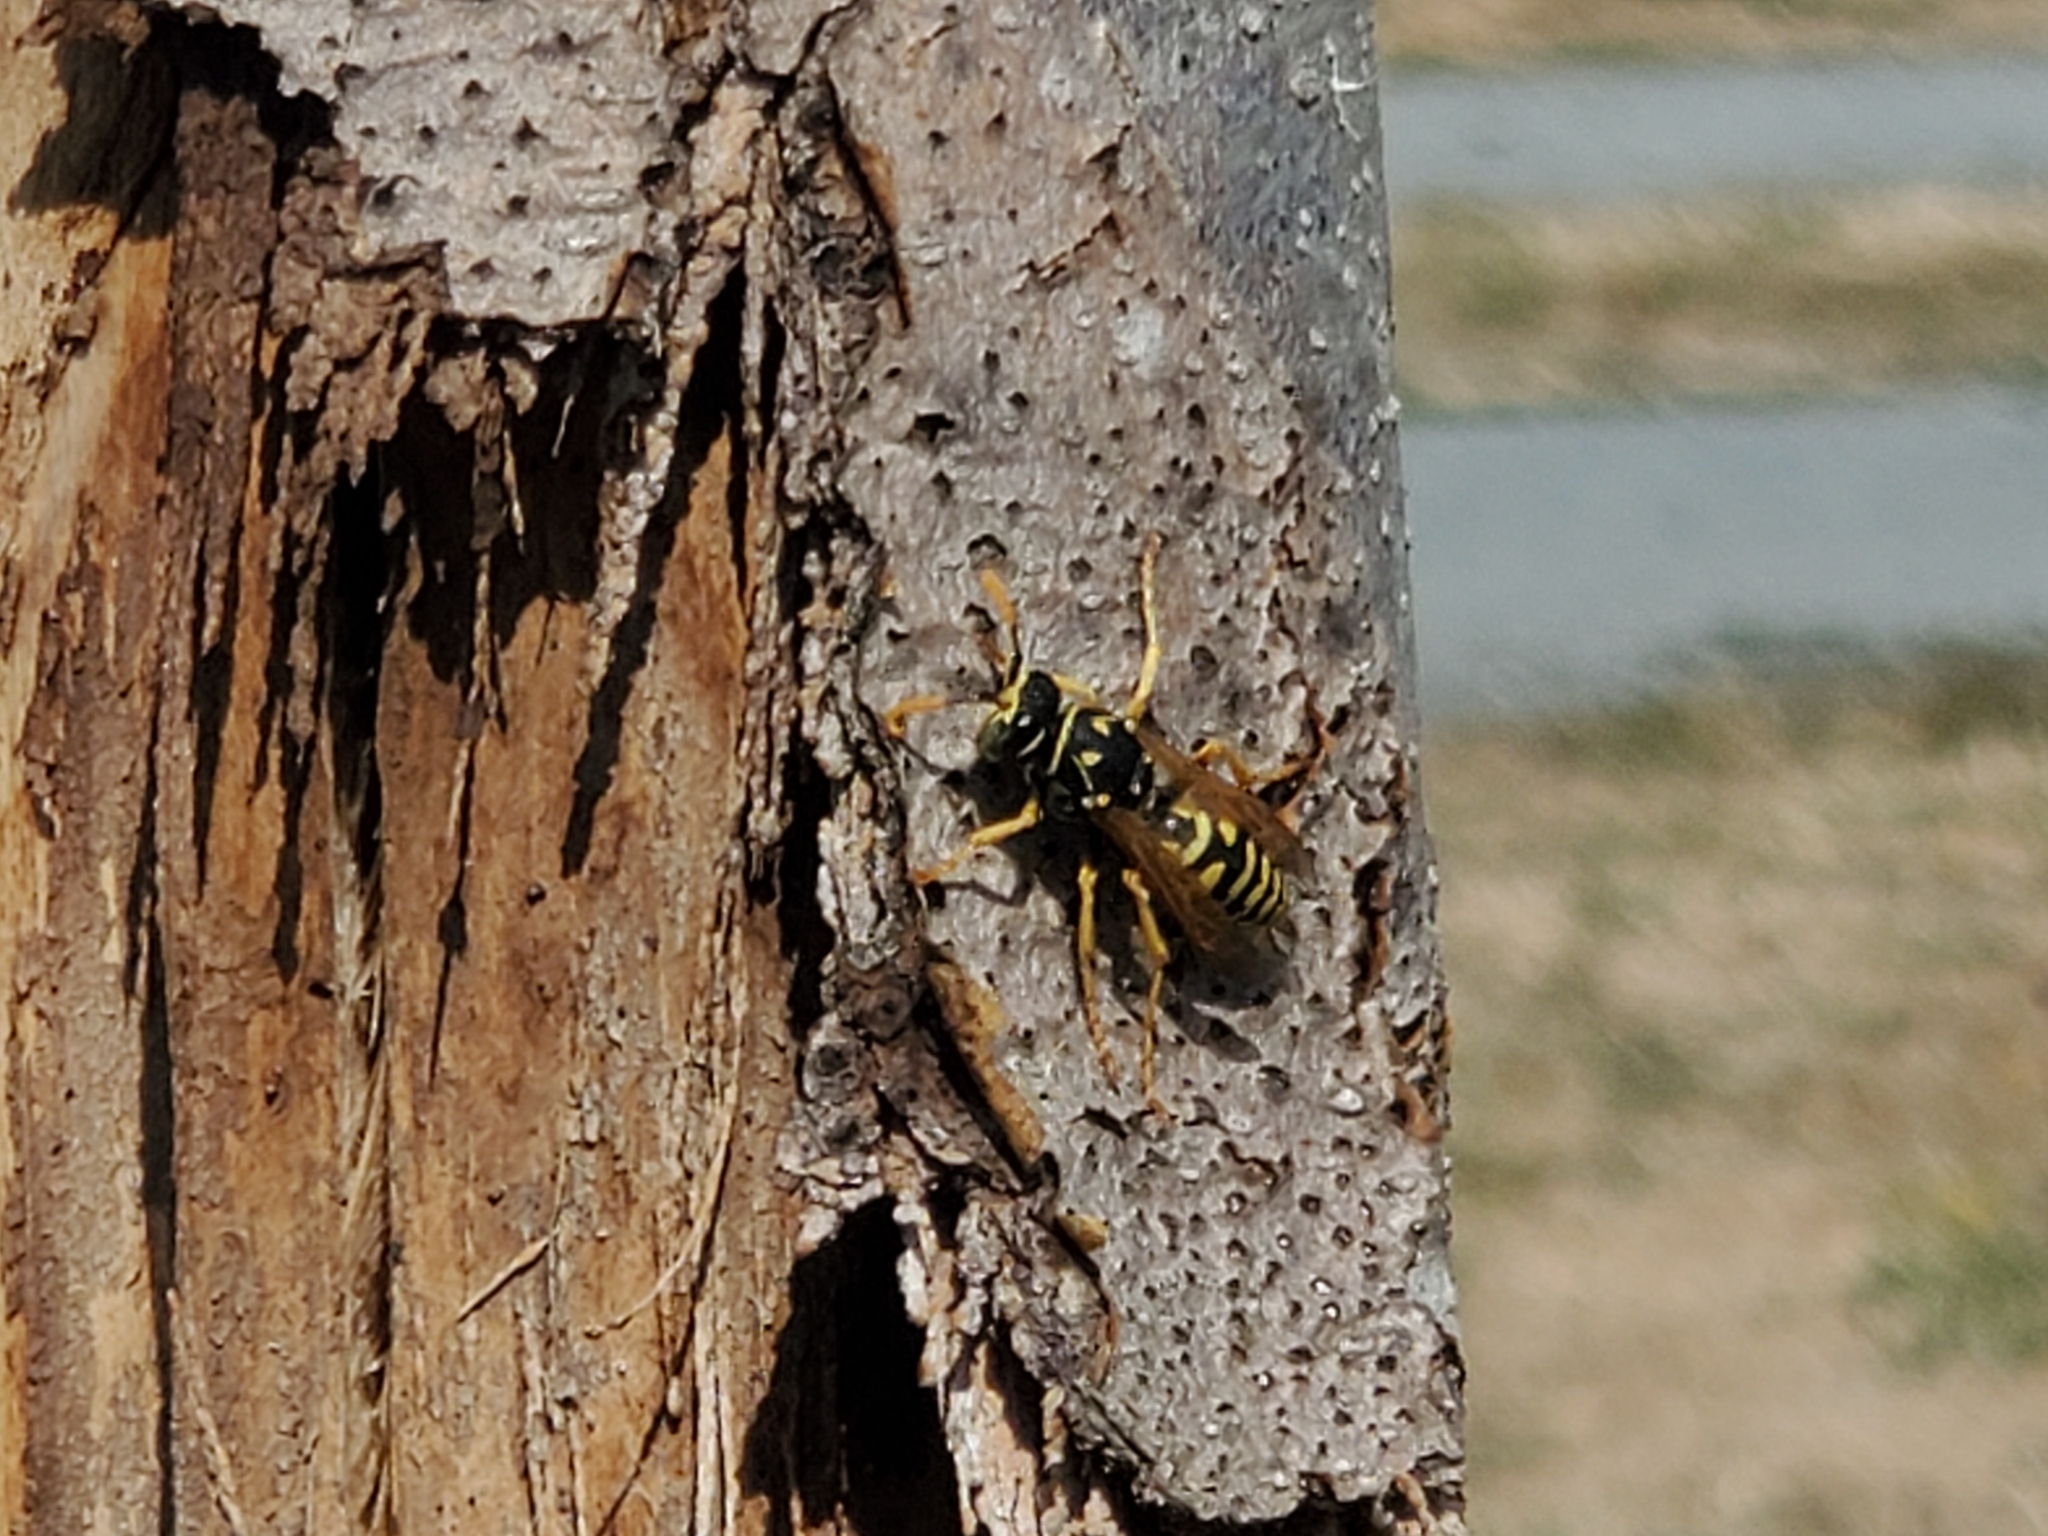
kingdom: Animalia
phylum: Arthropoda
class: Insecta
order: Hymenoptera
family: Eumenidae
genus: Polistes
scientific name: Polistes dominula
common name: Paper wasp
